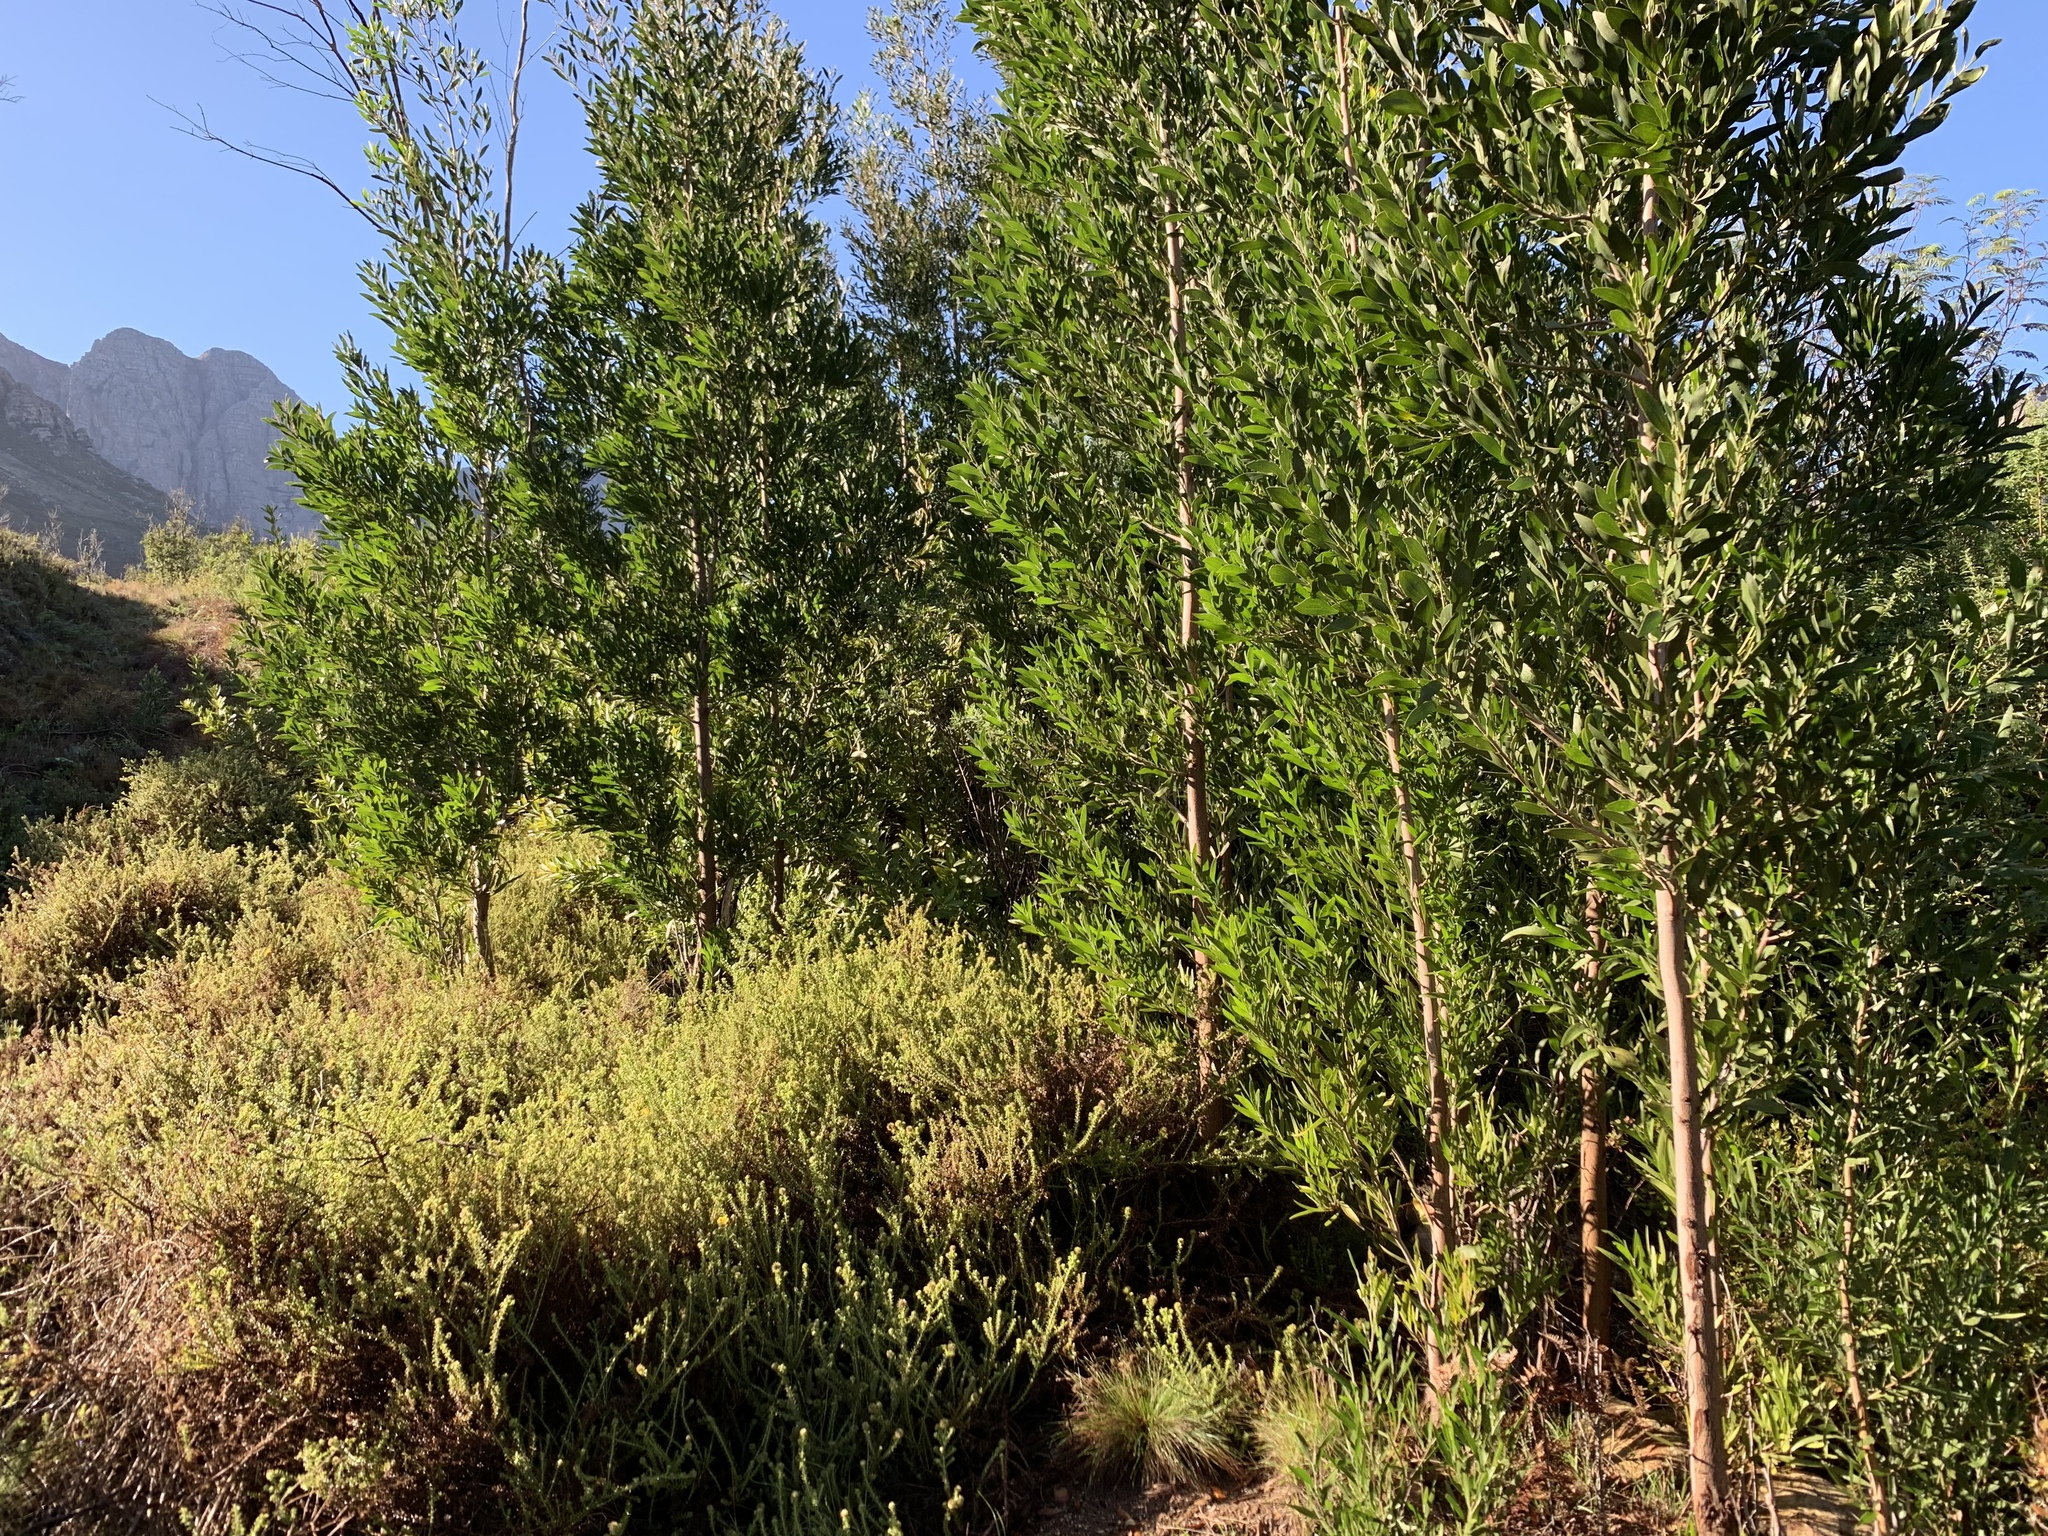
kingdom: Plantae
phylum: Tracheophyta
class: Magnoliopsida
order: Fabales
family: Fabaceae
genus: Acacia
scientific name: Acacia melanoxylon
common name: Blackwood
